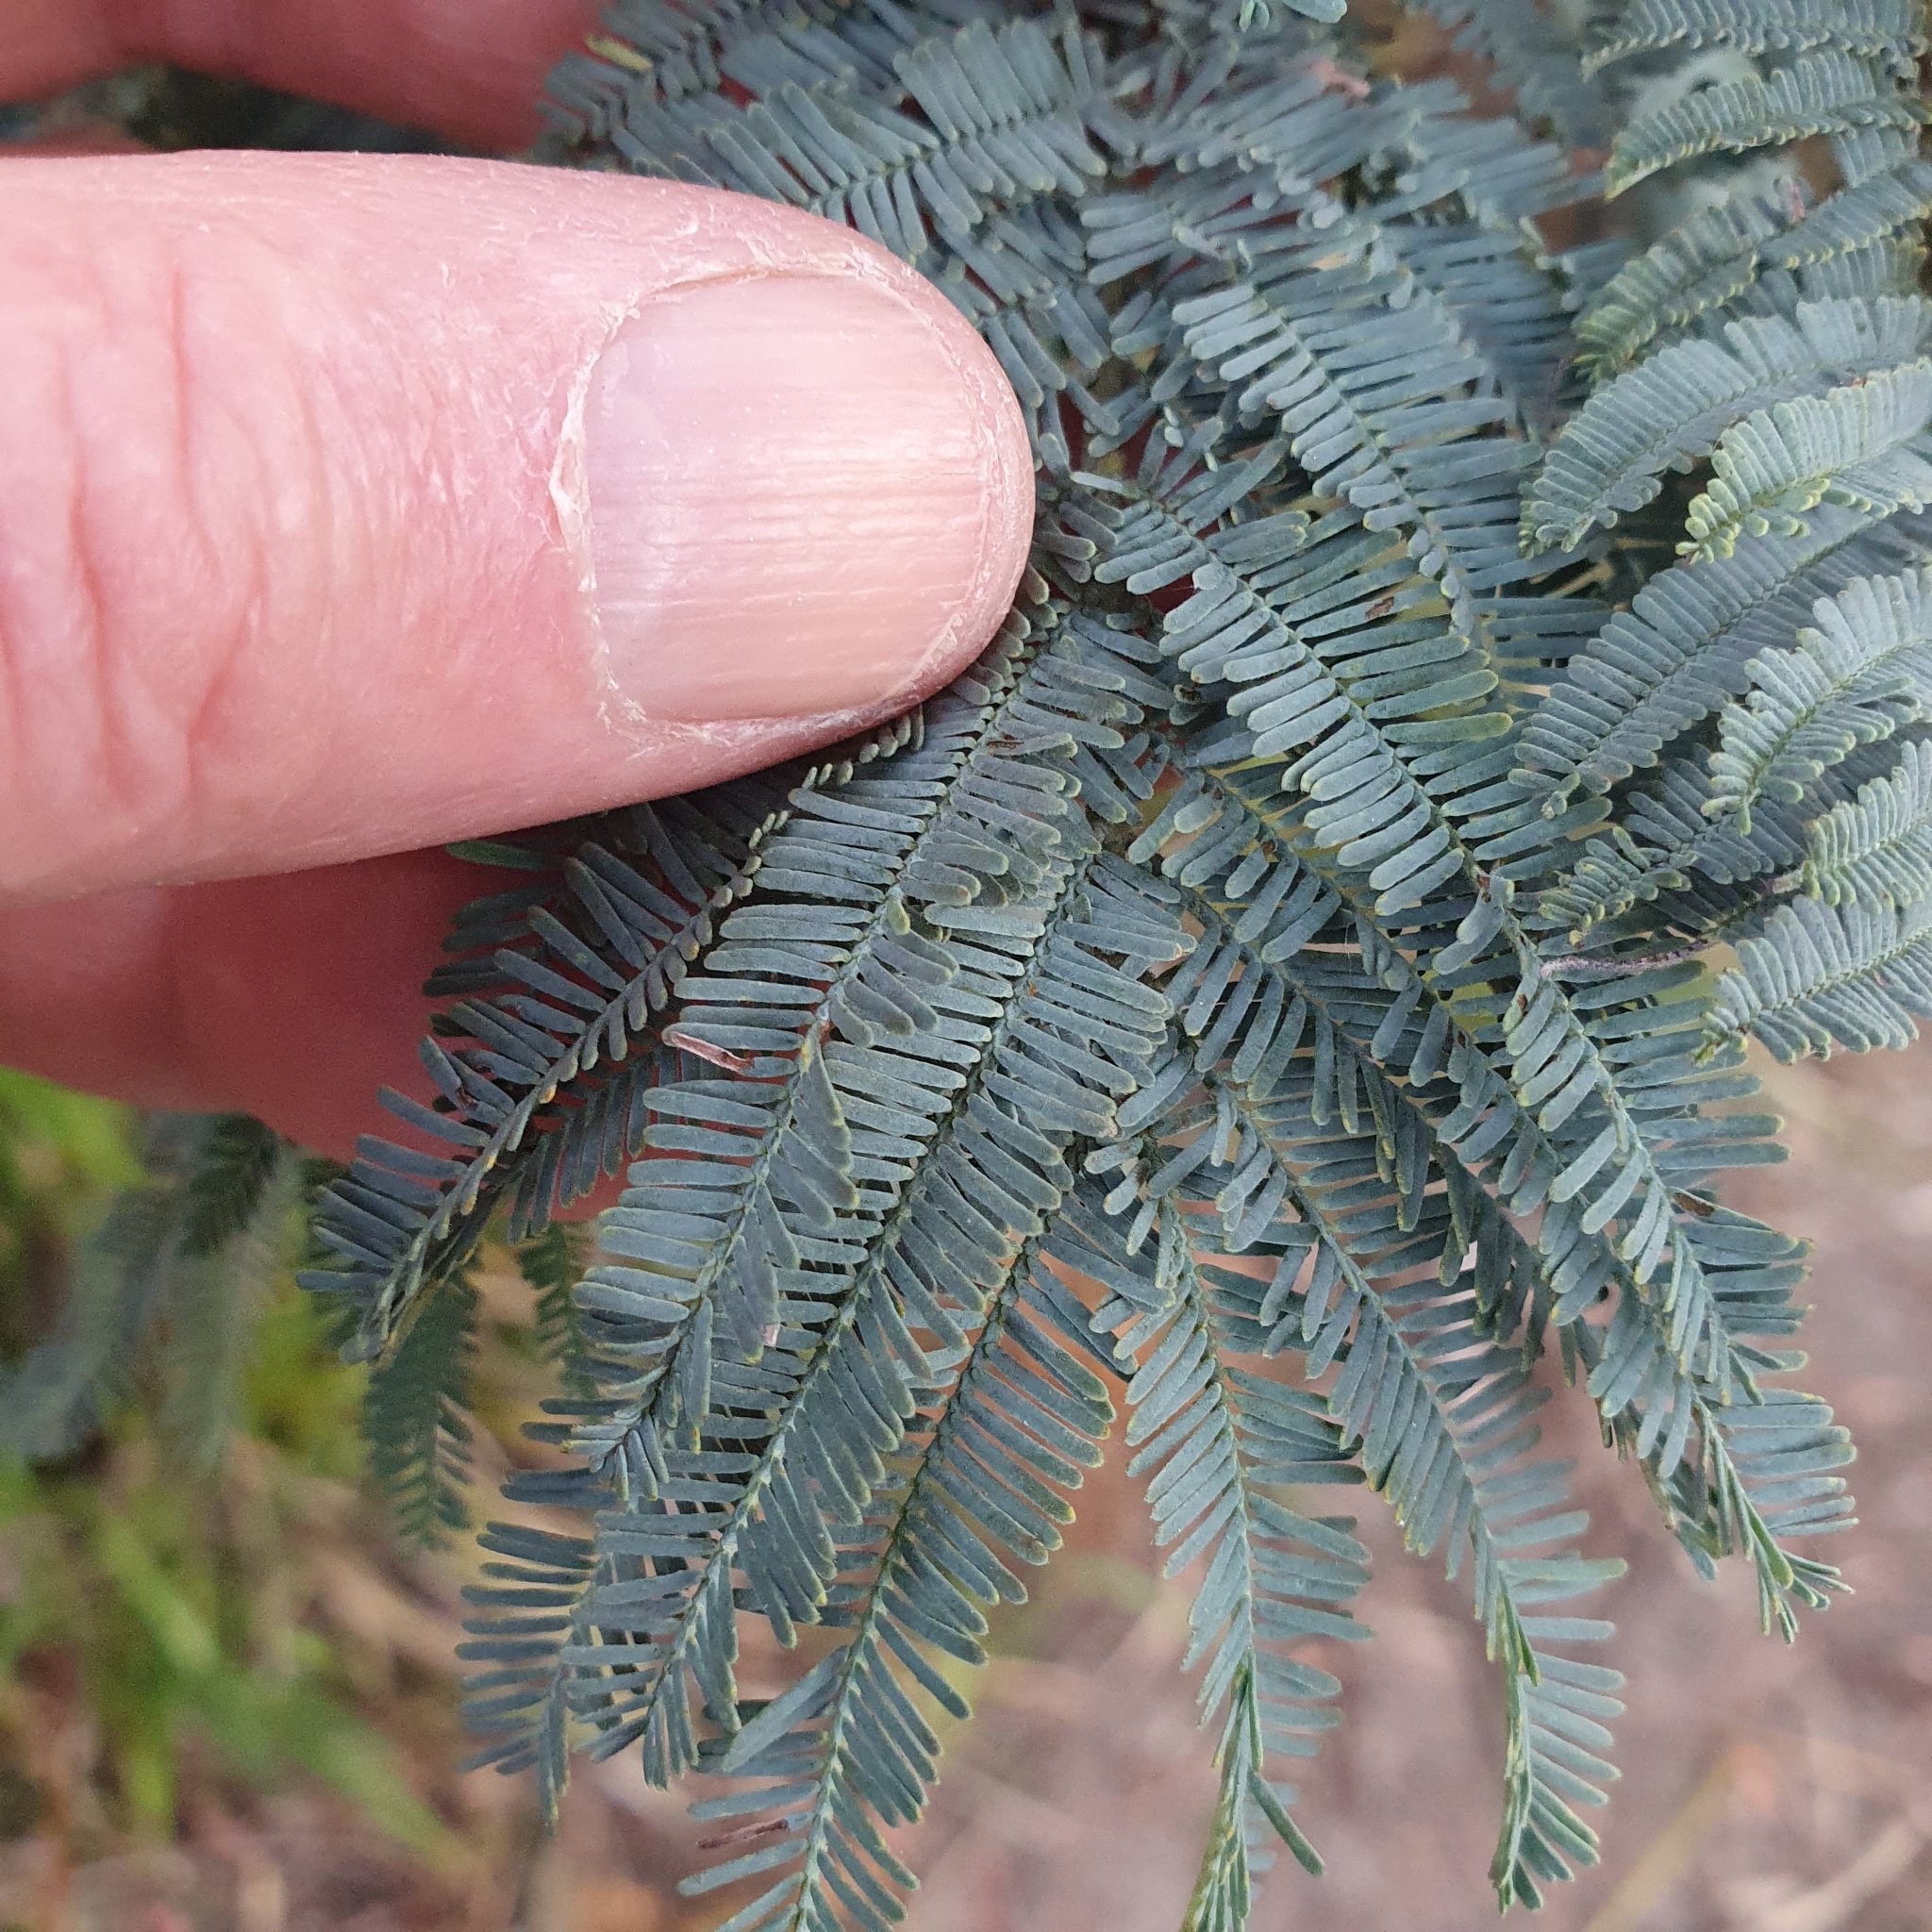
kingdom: Plantae
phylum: Tracheophyta
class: Magnoliopsida
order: Fabales
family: Fabaceae
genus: Acacia
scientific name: Acacia dealbata
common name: Silver wattle
